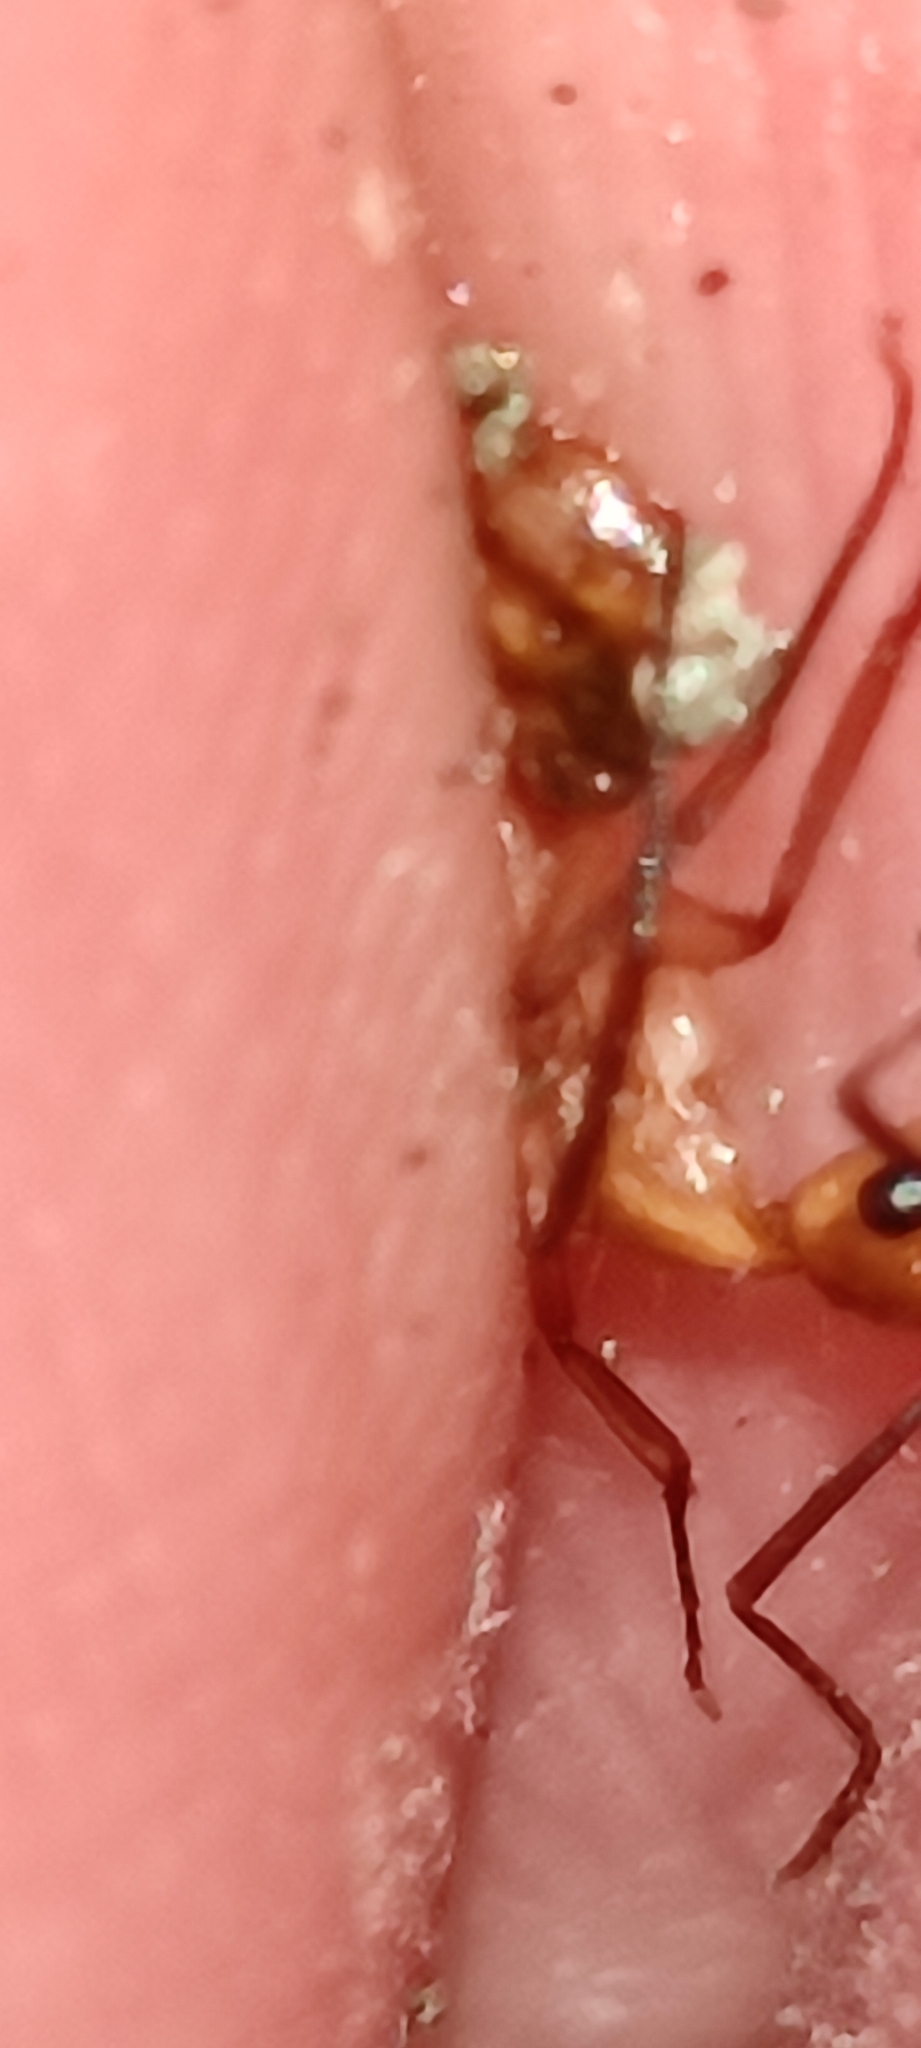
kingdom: Animalia
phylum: Arthropoda
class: Insecta
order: Hymenoptera
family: Formicidae
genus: Camponotus
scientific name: Camponotus
